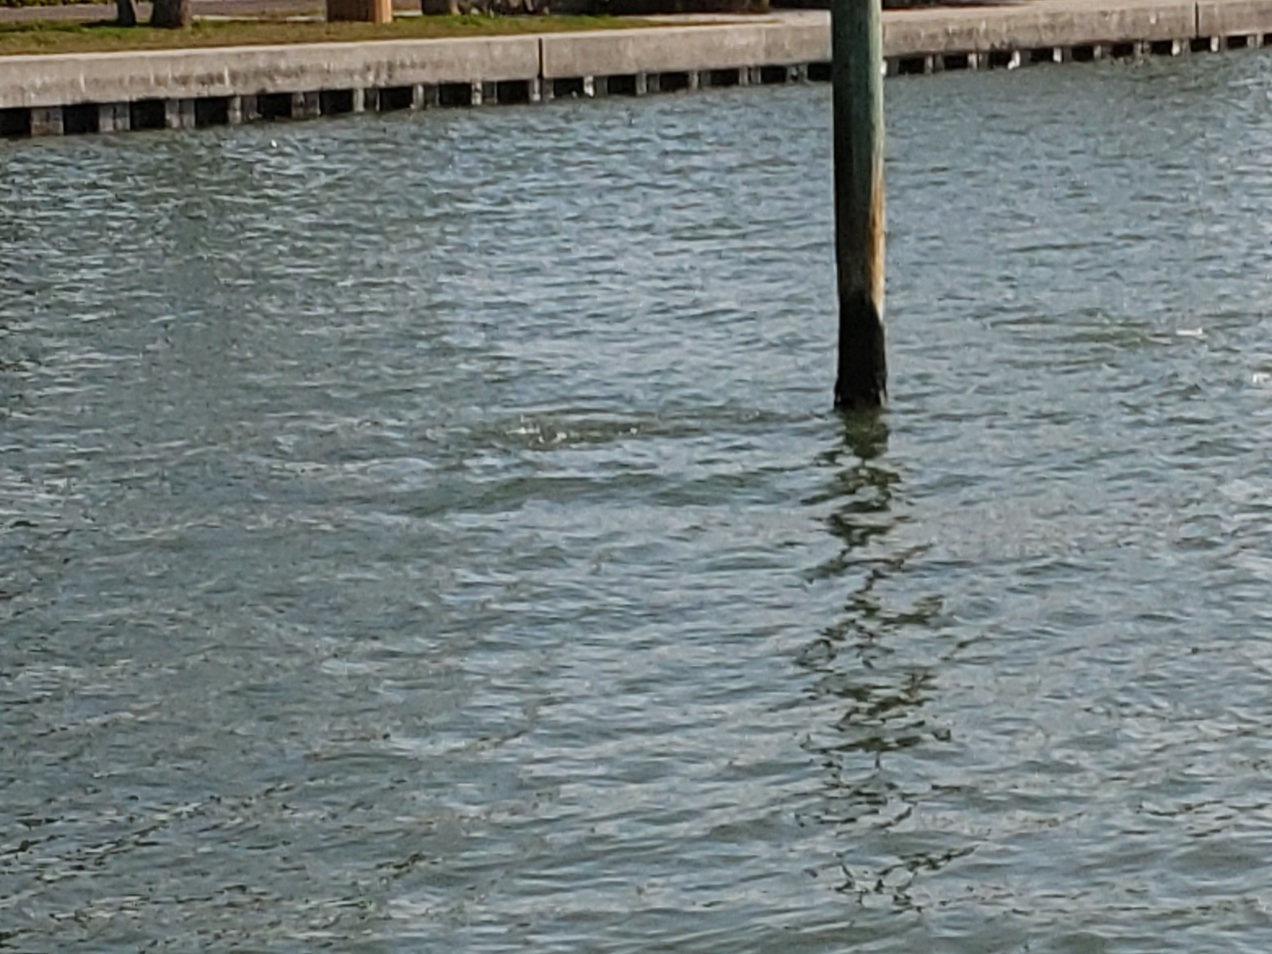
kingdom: Animalia
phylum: Chordata
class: Mammalia
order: Cetacea
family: Delphinidae
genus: Tursiops
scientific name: Tursiops truncatus
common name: Bottlenose dolphin
